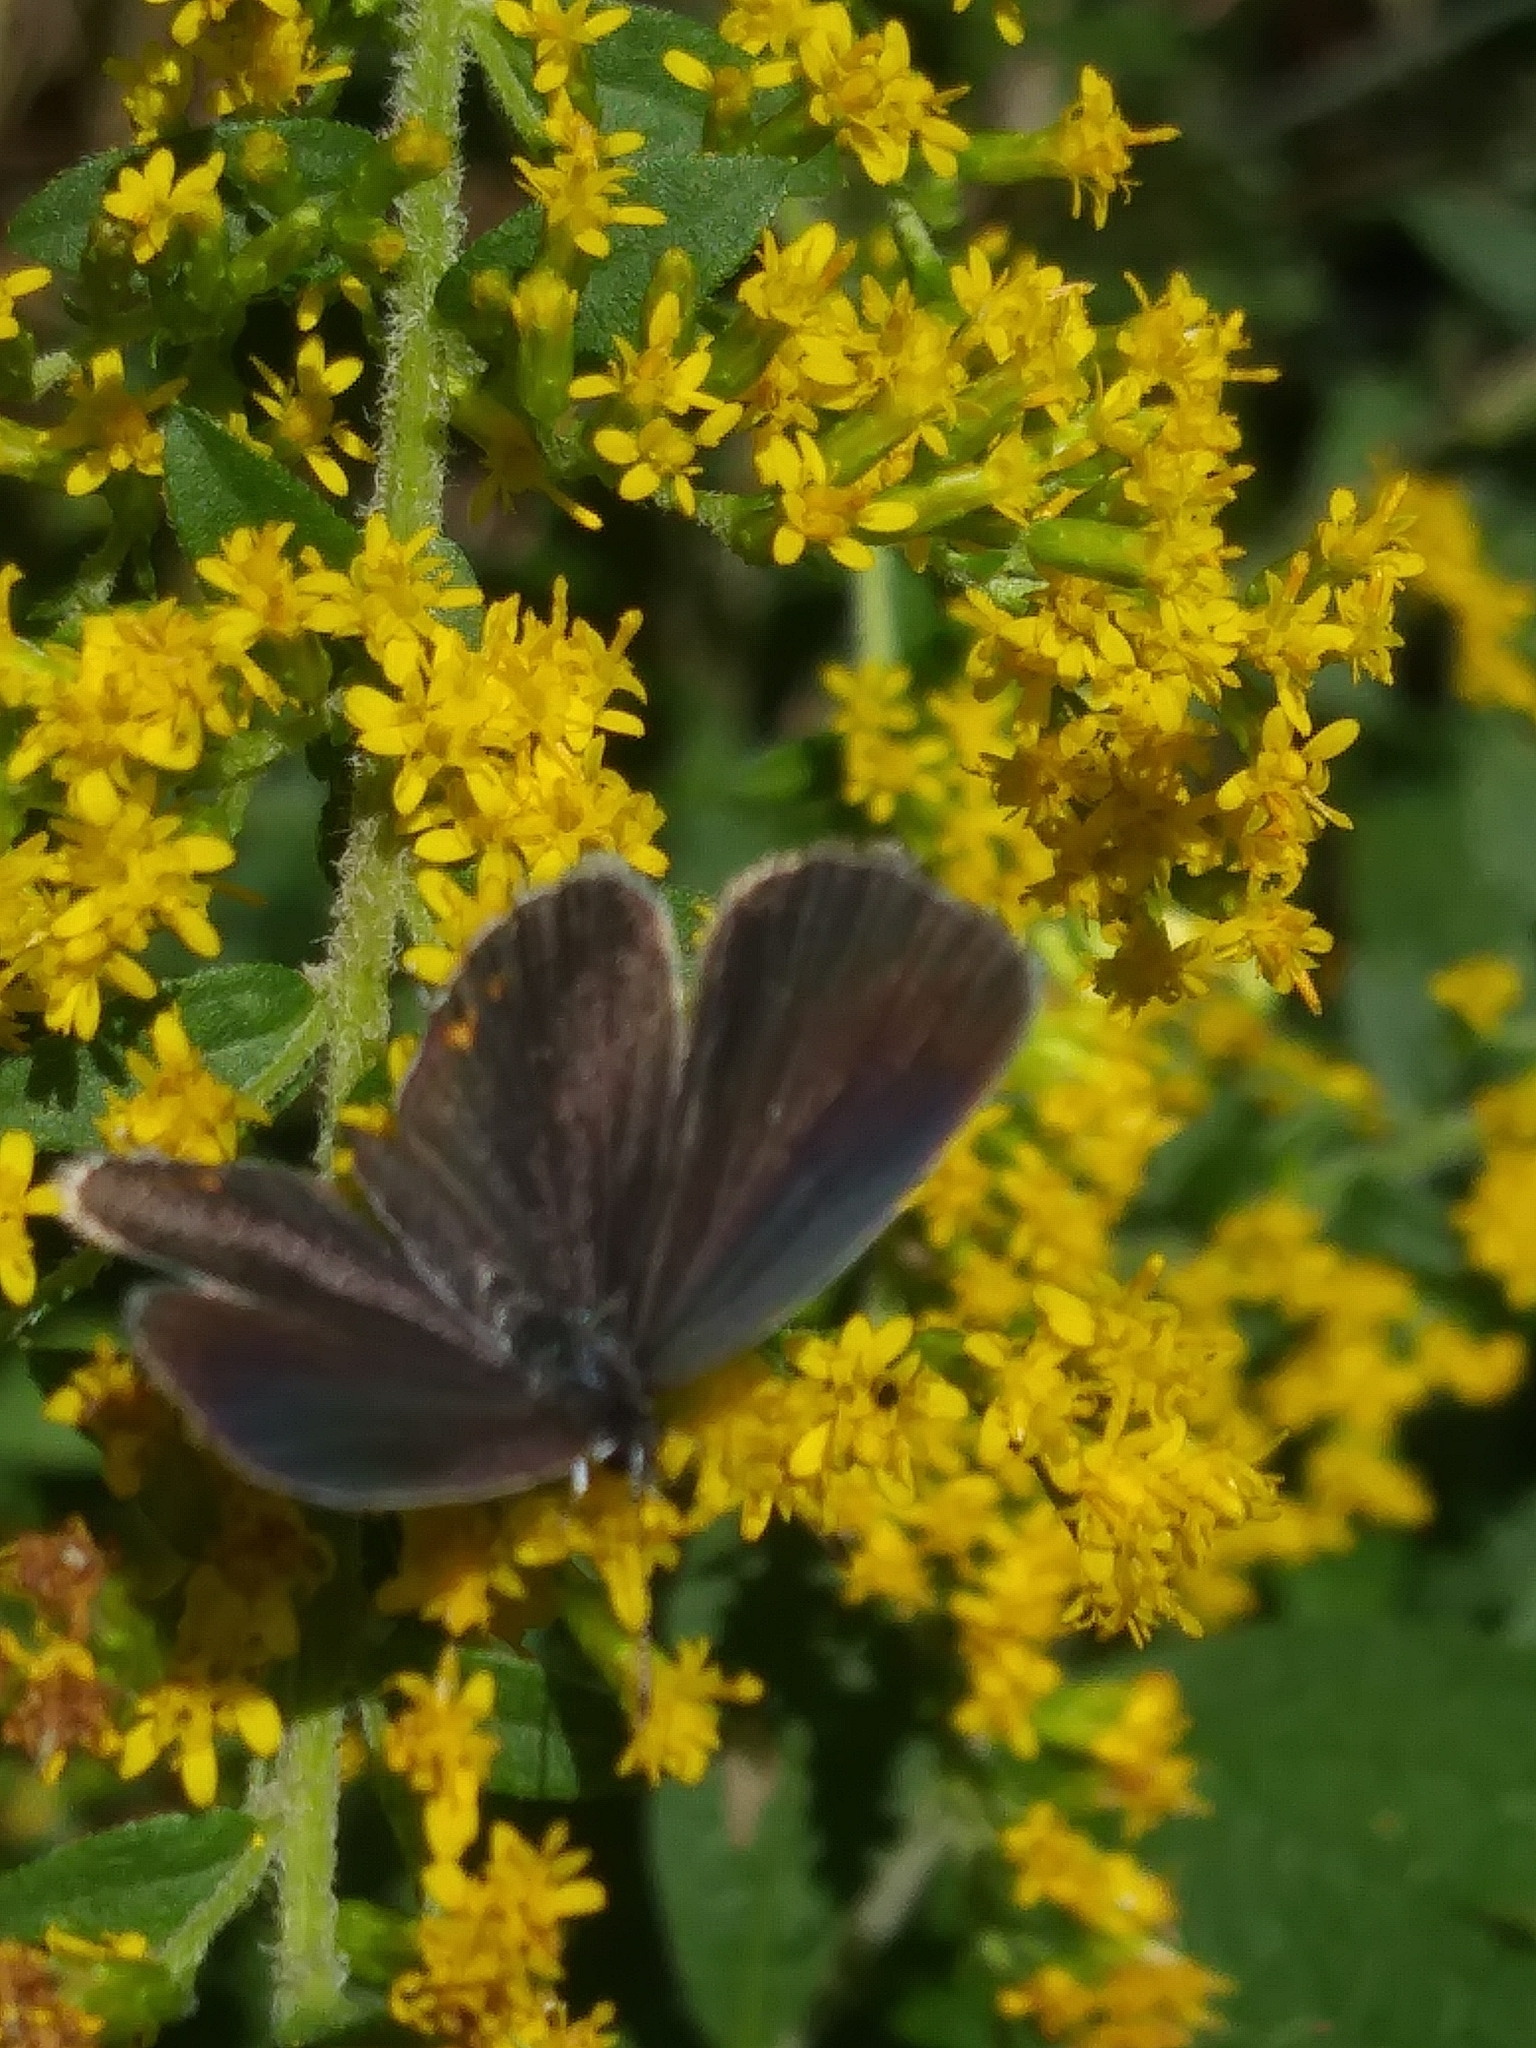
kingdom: Animalia
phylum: Arthropoda
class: Insecta
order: Lepidoptera
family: Lycaenidae
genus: Elkalyce
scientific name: Elkalyce comyntas
